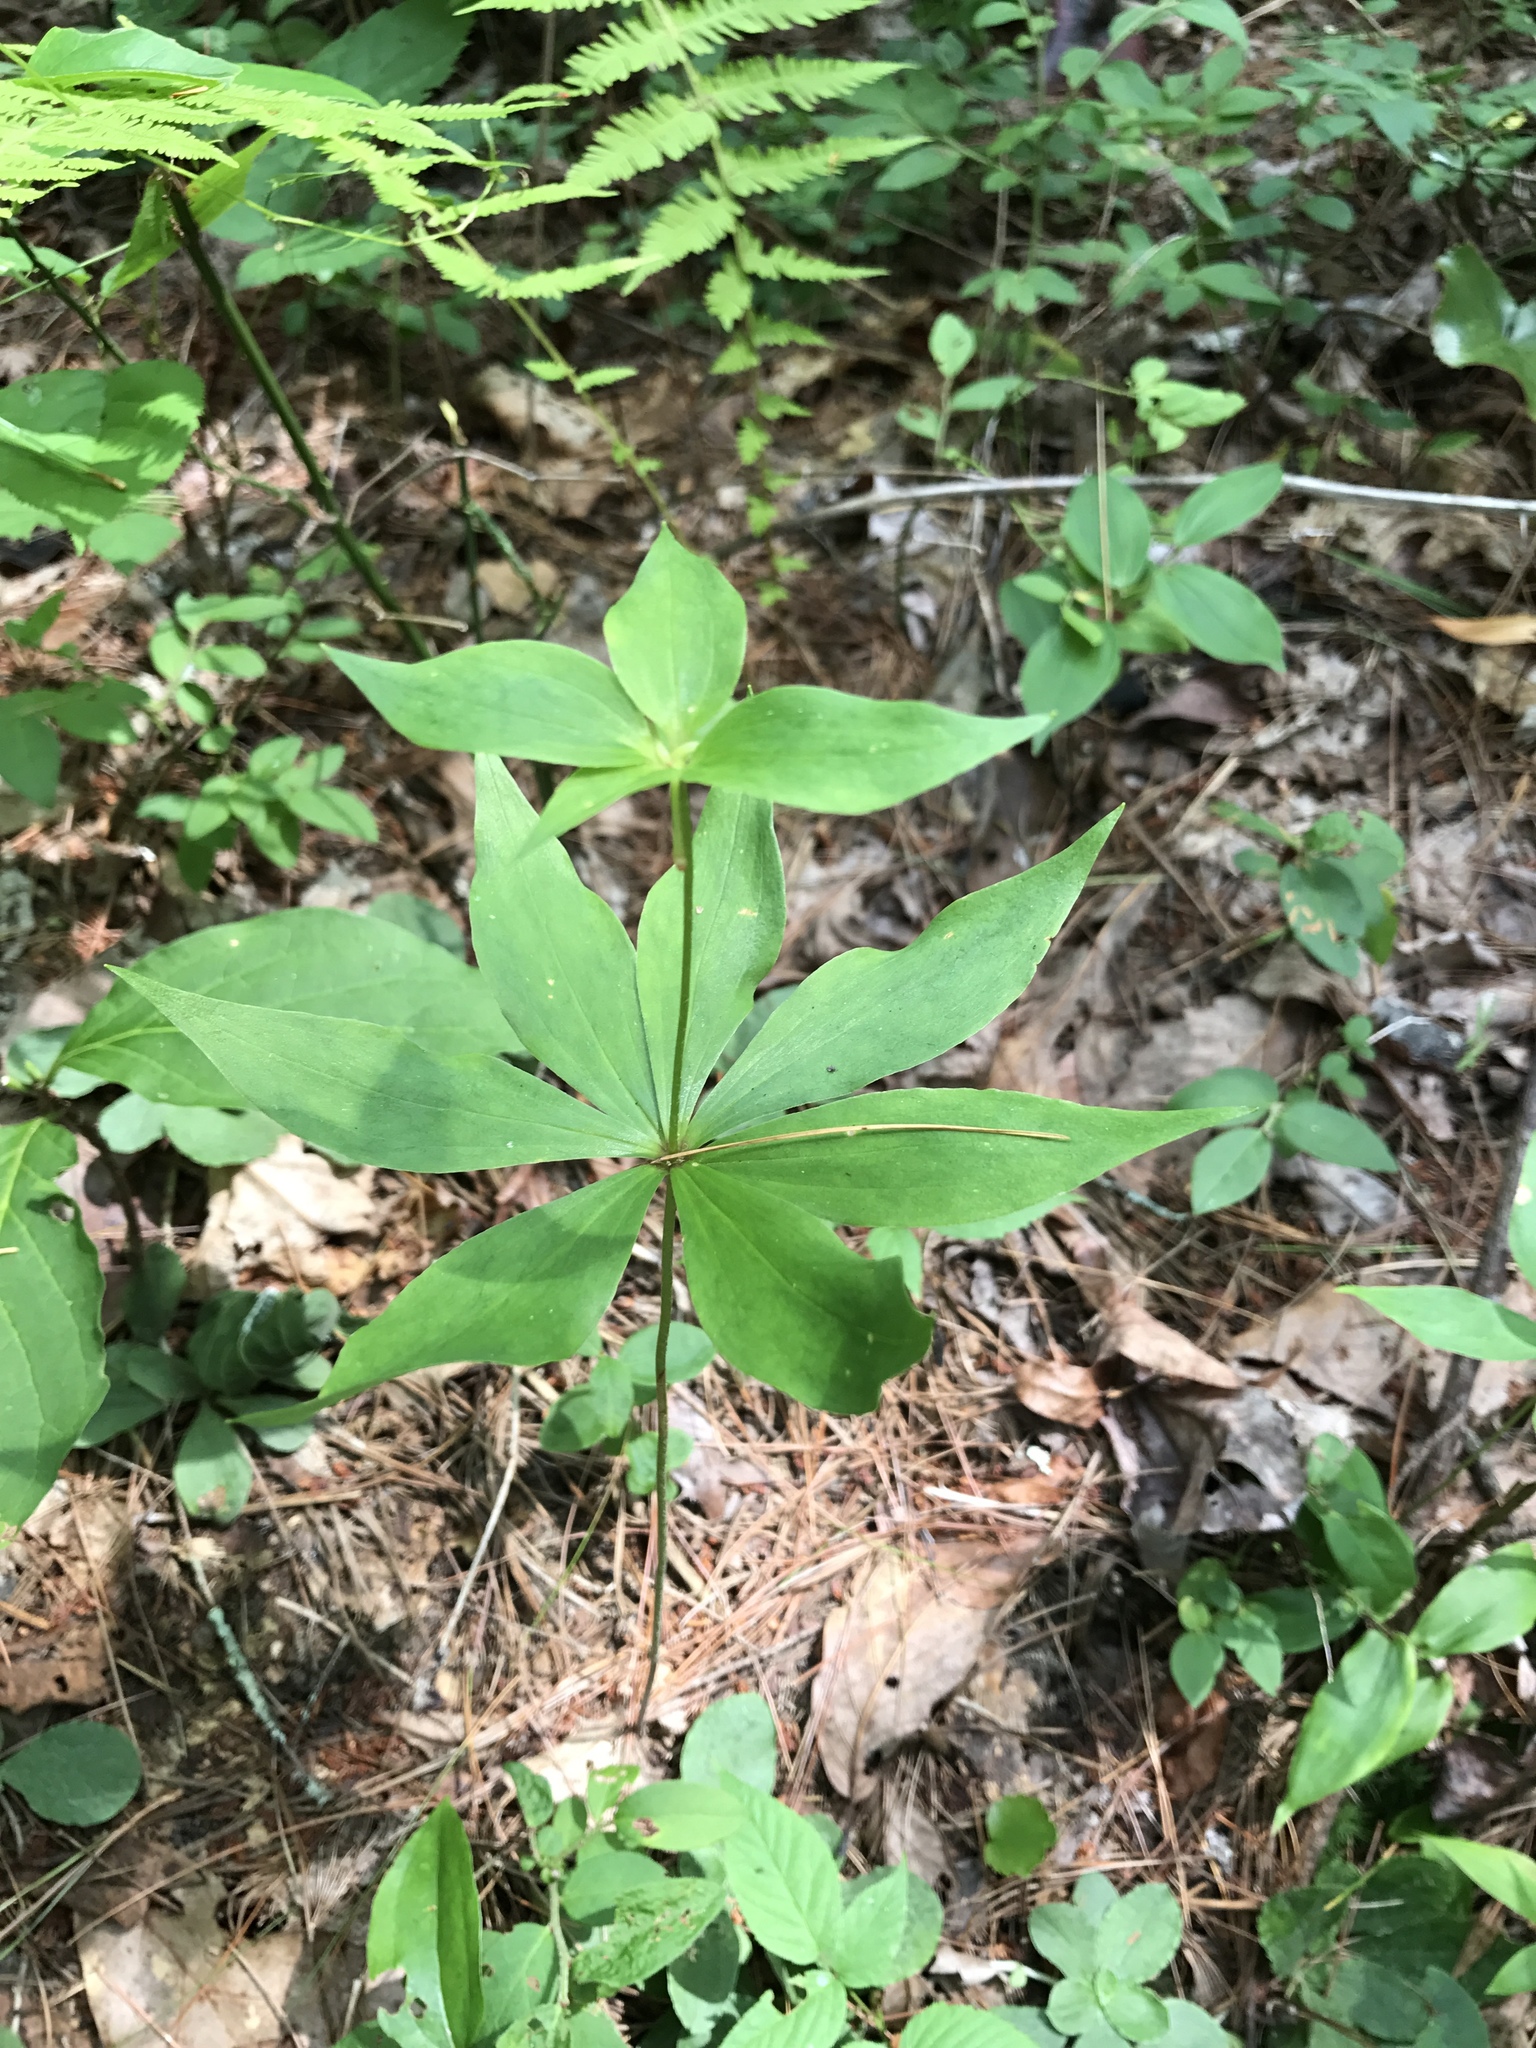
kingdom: Plantae
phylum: Tracheophyta
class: Liliopsida
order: Liliales
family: Liliaceae
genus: Medeola
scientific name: Medeola virginiana
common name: Indian cucumber-root
